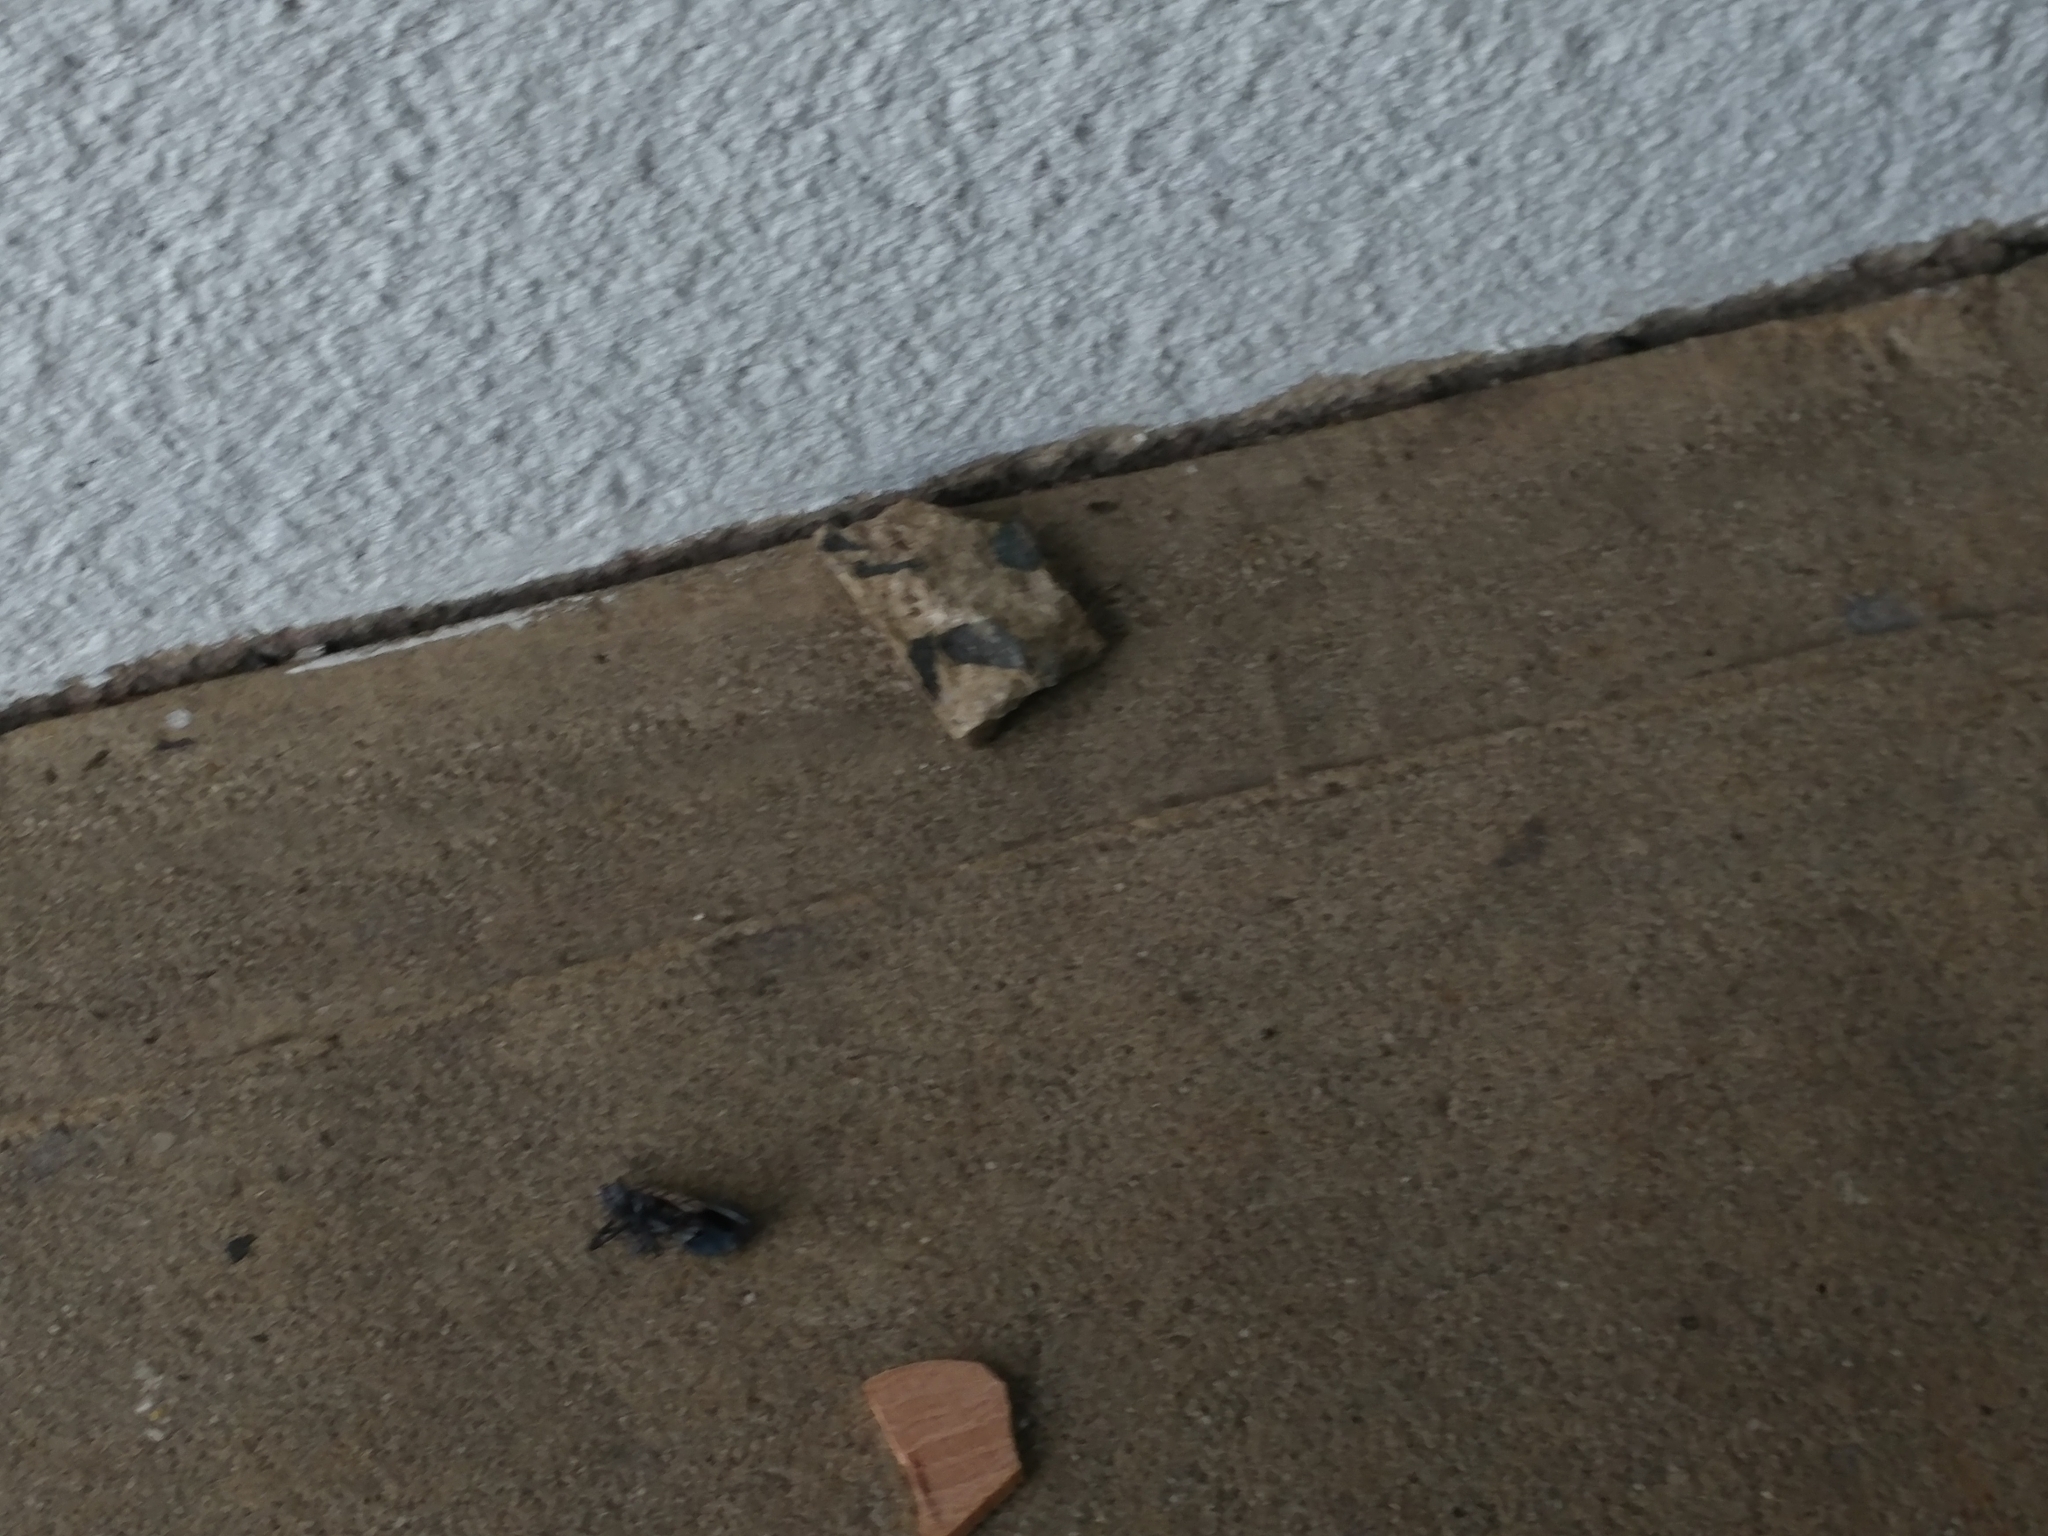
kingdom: Animalia
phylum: Arthropoda
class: Insecta
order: Hemiptera
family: Fulgoridae
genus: Lycorma
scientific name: Lycorma delicatula
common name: Spotted lanternfly
